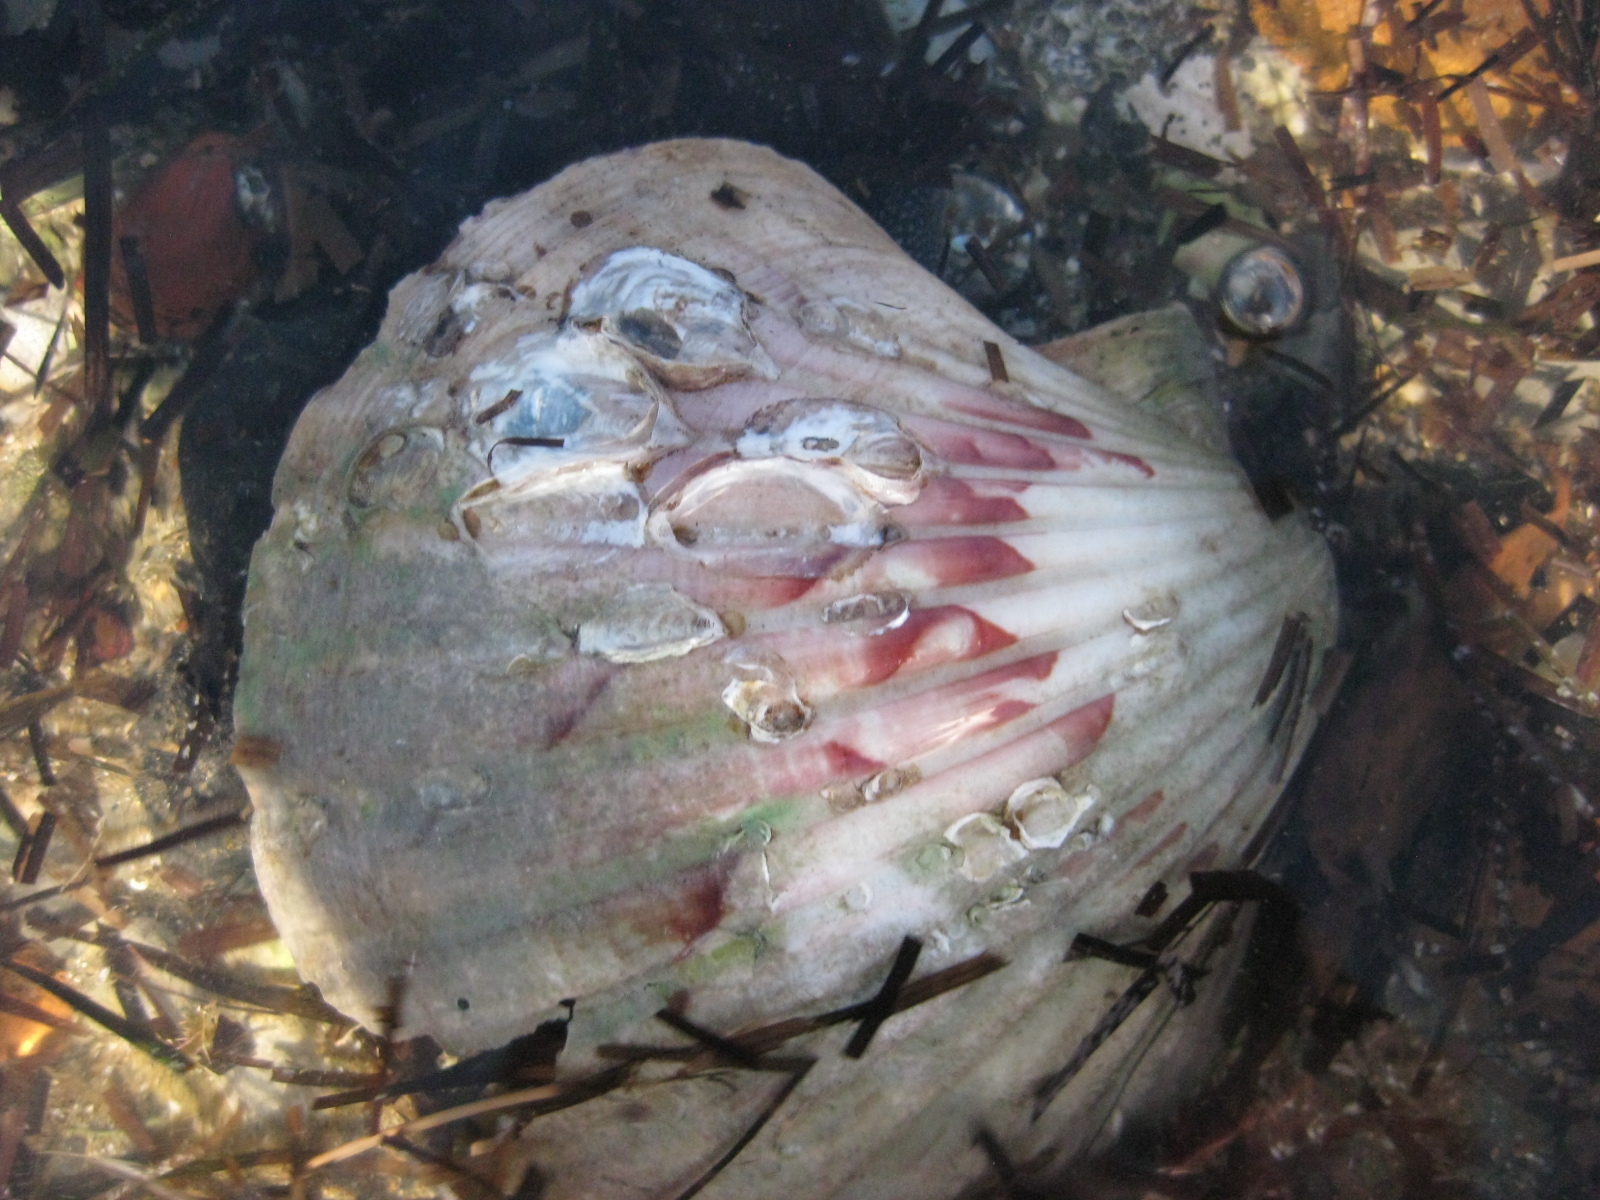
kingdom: Animalia
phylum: Mollusca
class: Bivalvia
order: Pectinida
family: Pectinidae
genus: Pecten
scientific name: Pecten novaezelandiae
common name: New zealand scallop
